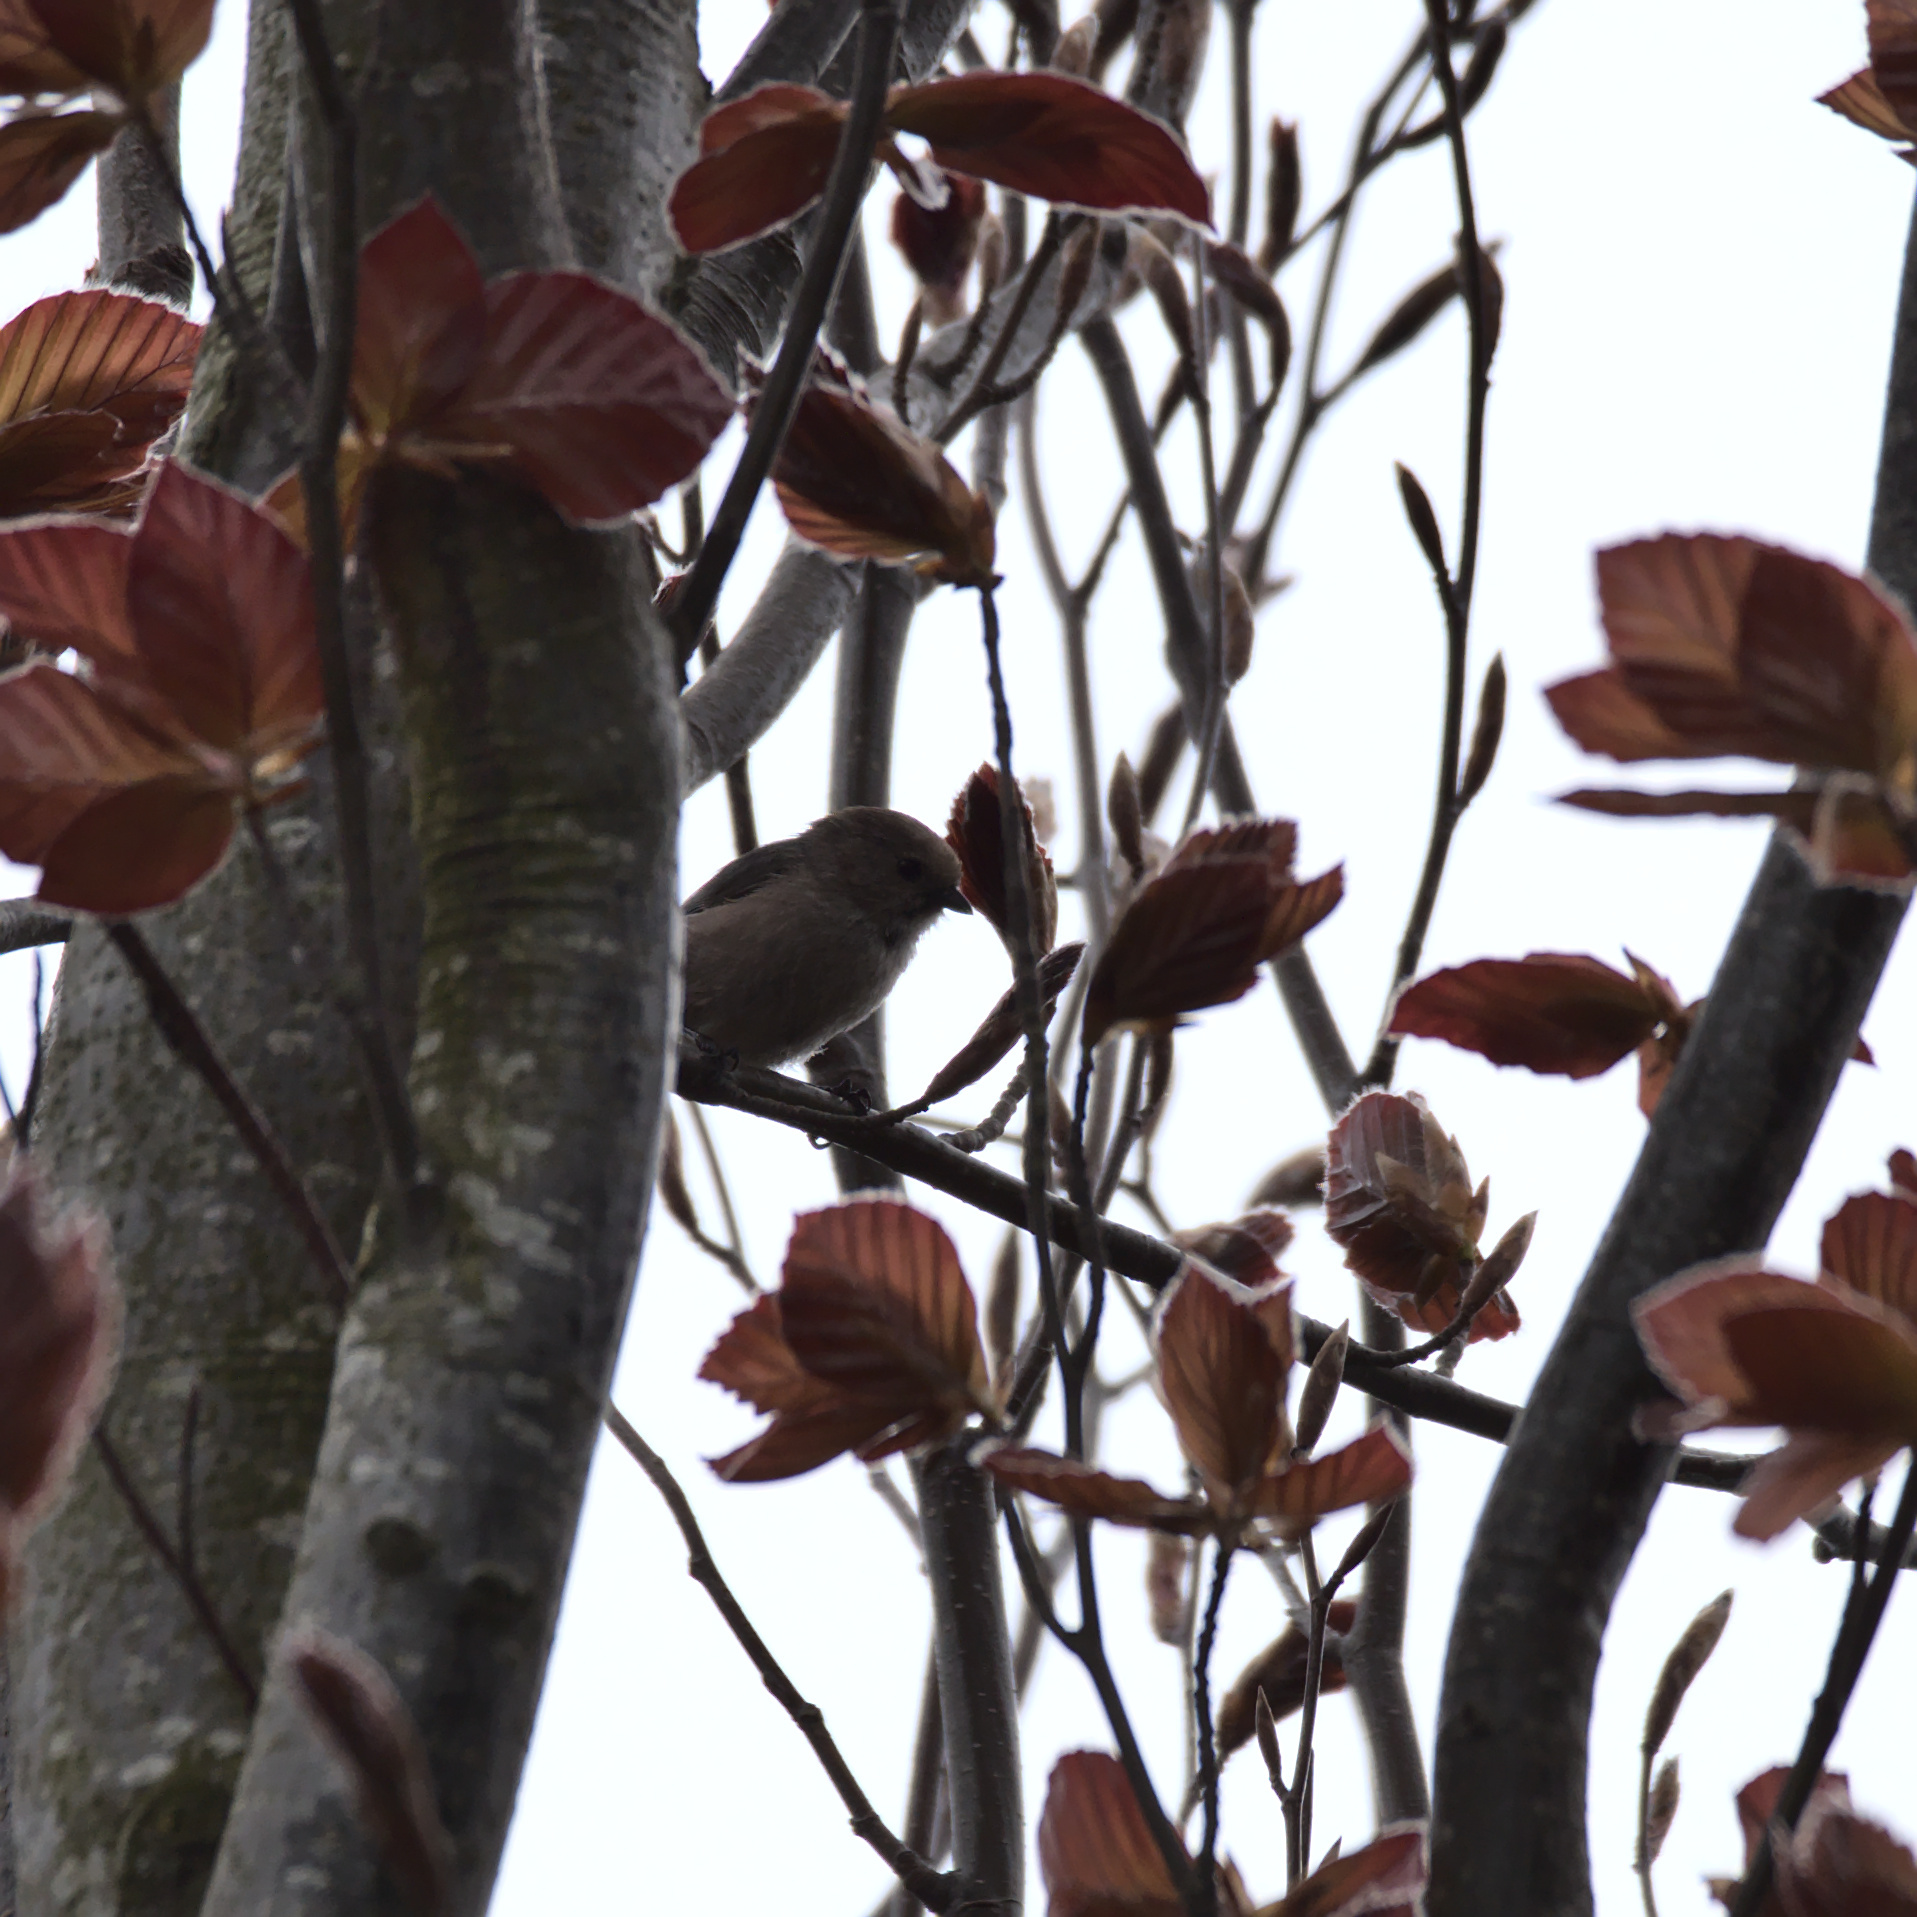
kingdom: Animalia
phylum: Chordata
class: Aves
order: Passeriformes
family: Aegithalidae
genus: Psaltriparus
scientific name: Psaltriparus minimus
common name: American bushtit
